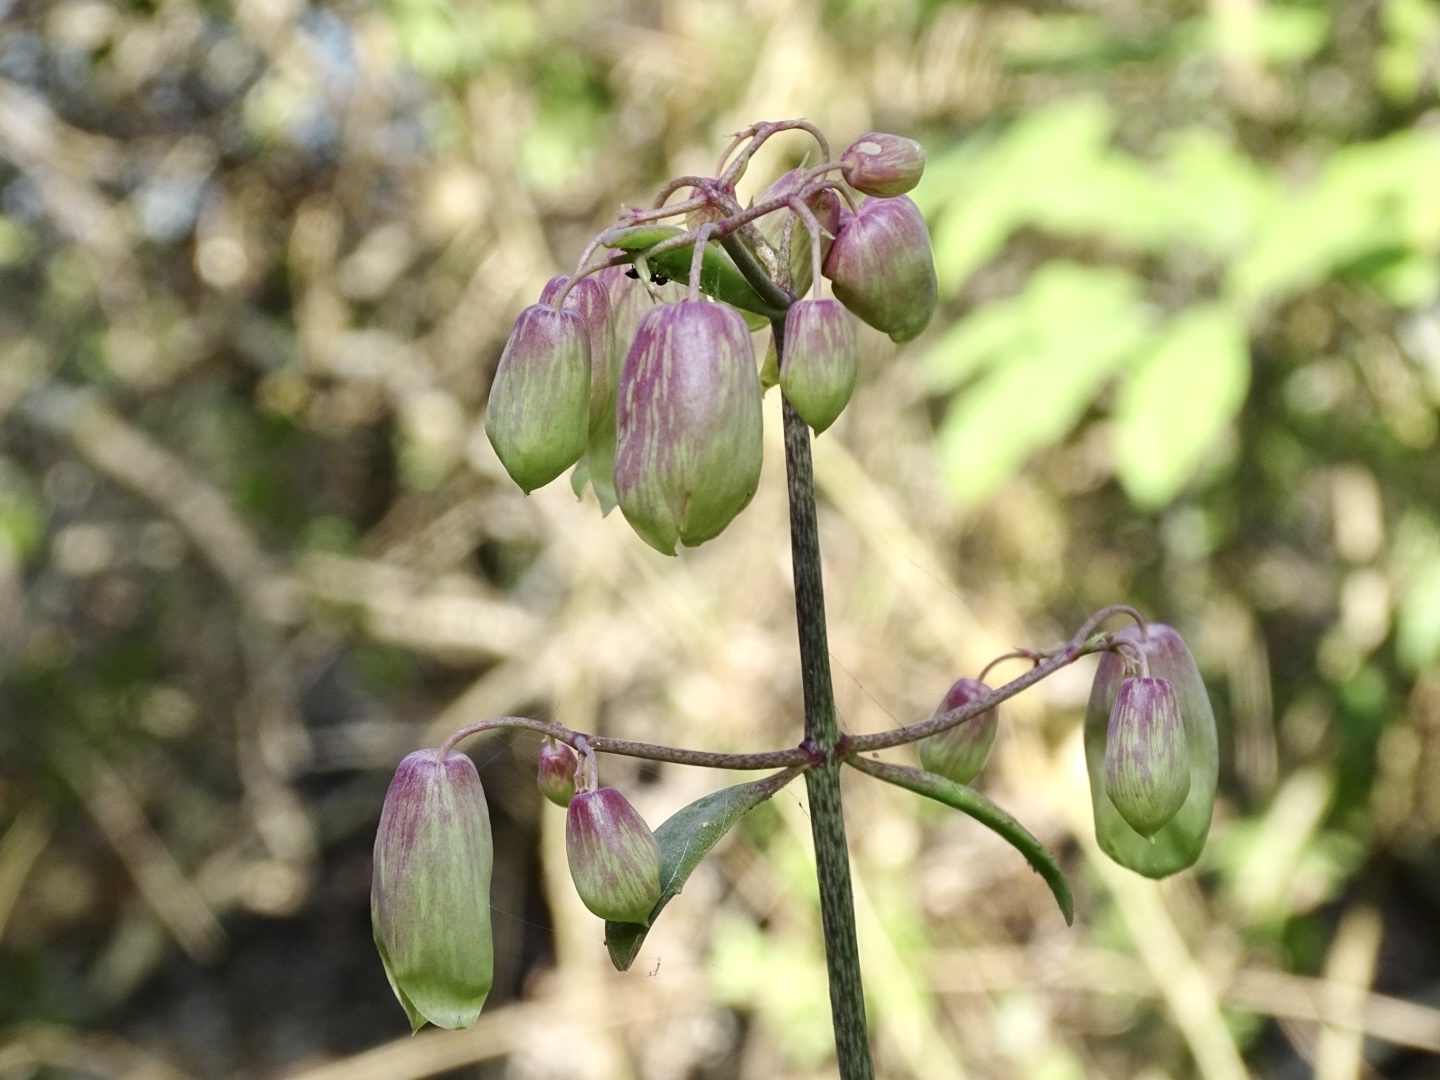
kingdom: Plantae
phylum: Tracheophyta
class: Magnoliopsida
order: Saxifragales
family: Crassulaceae
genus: Kalanchoe
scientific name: Kalanchoe pinnata
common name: Cathedral bells
